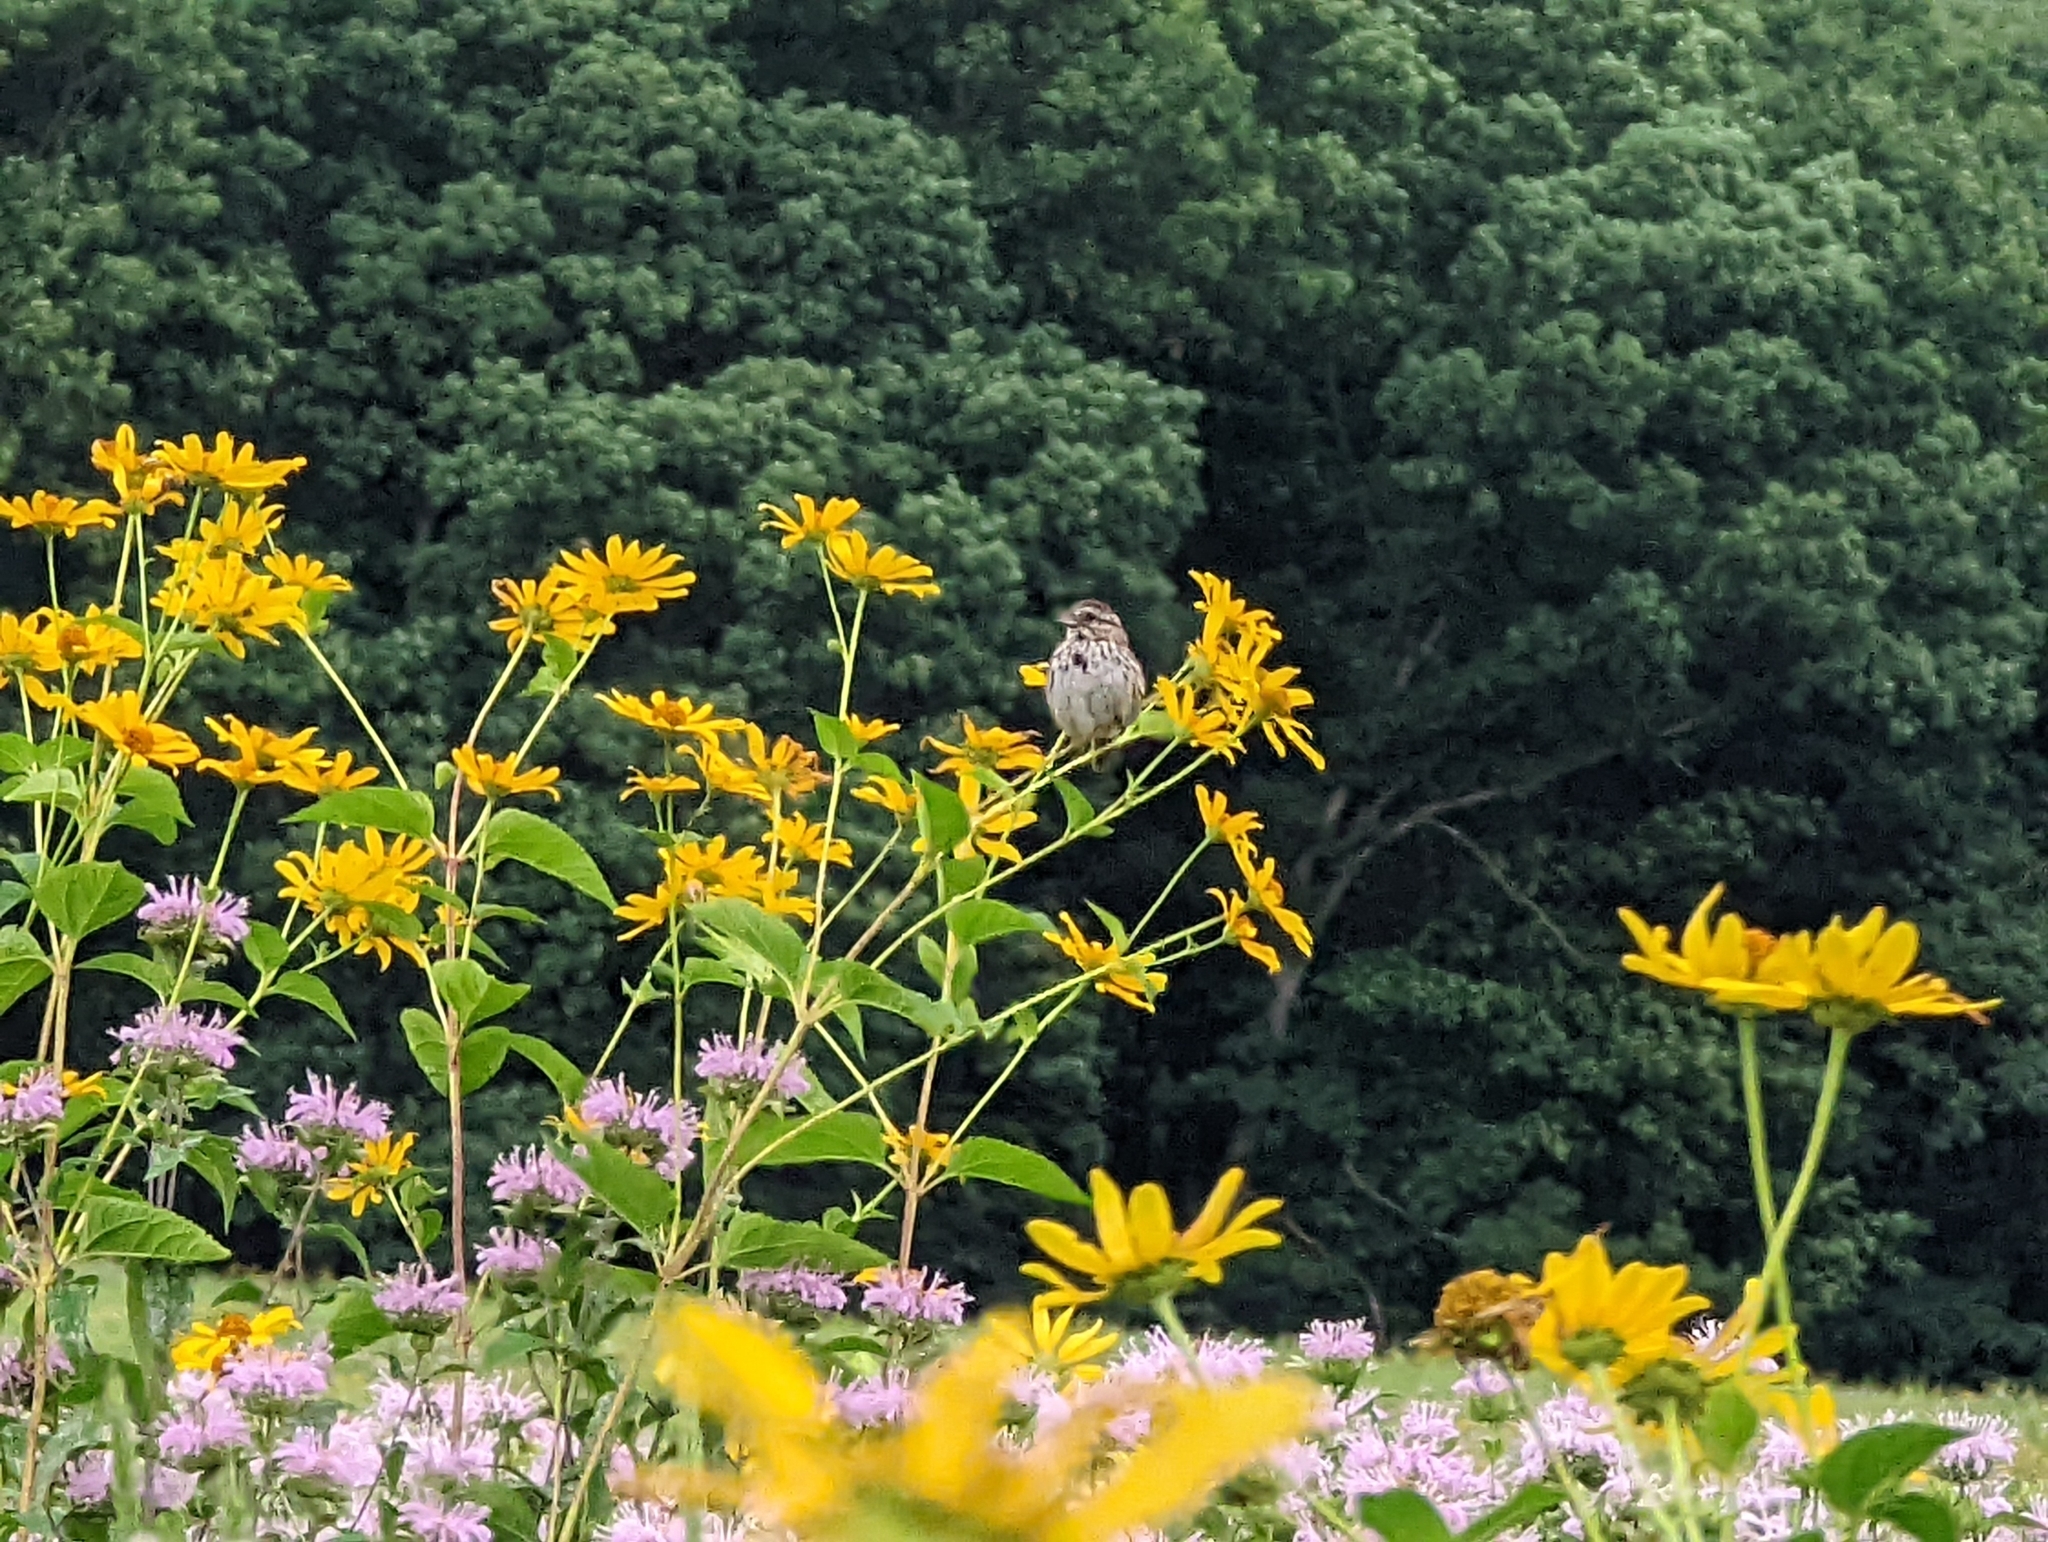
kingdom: Animalia
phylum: Chordata
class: Aves
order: Passeriformes
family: Passerellidae
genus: Melospiza
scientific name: Melospiza melodia
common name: Song sparrow
